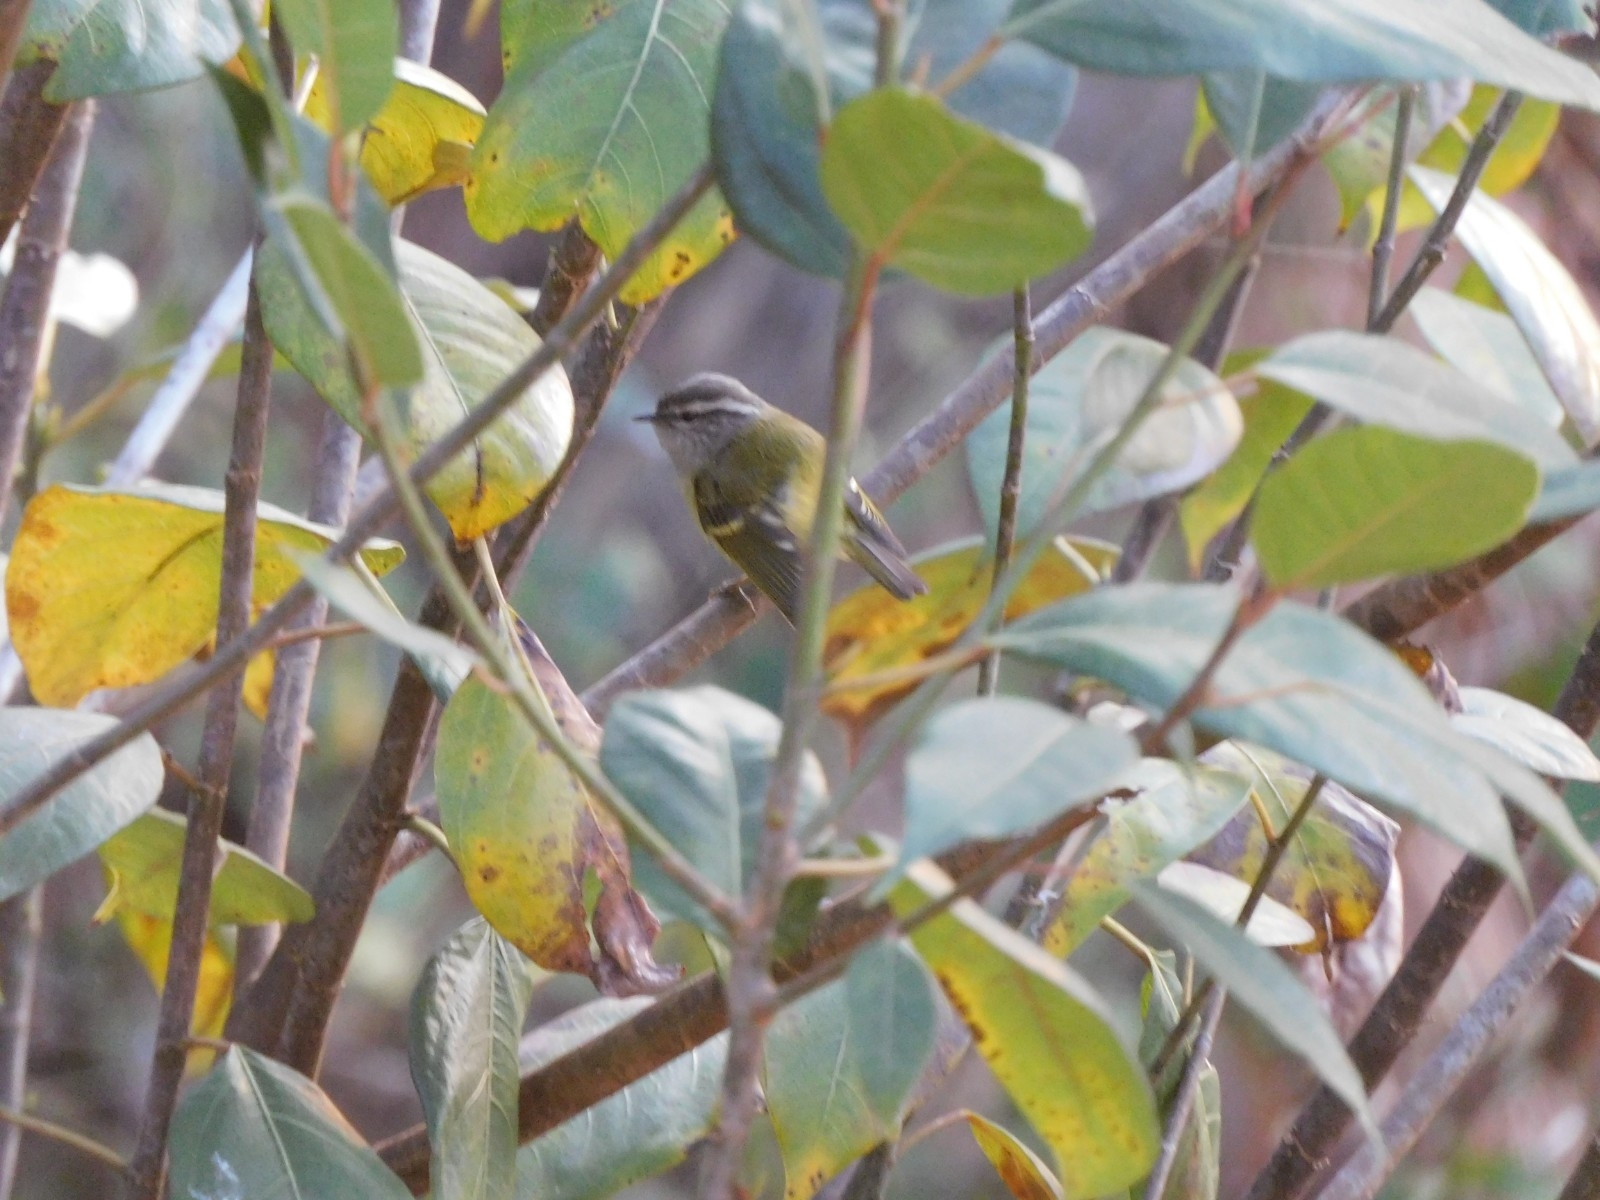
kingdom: Animalia
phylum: Chordata
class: Aves
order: Passeriformes
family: Phylloscopidae
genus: Phylloscopus
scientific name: Phylloscopus maculipennis
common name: Ashy-throated warbler
